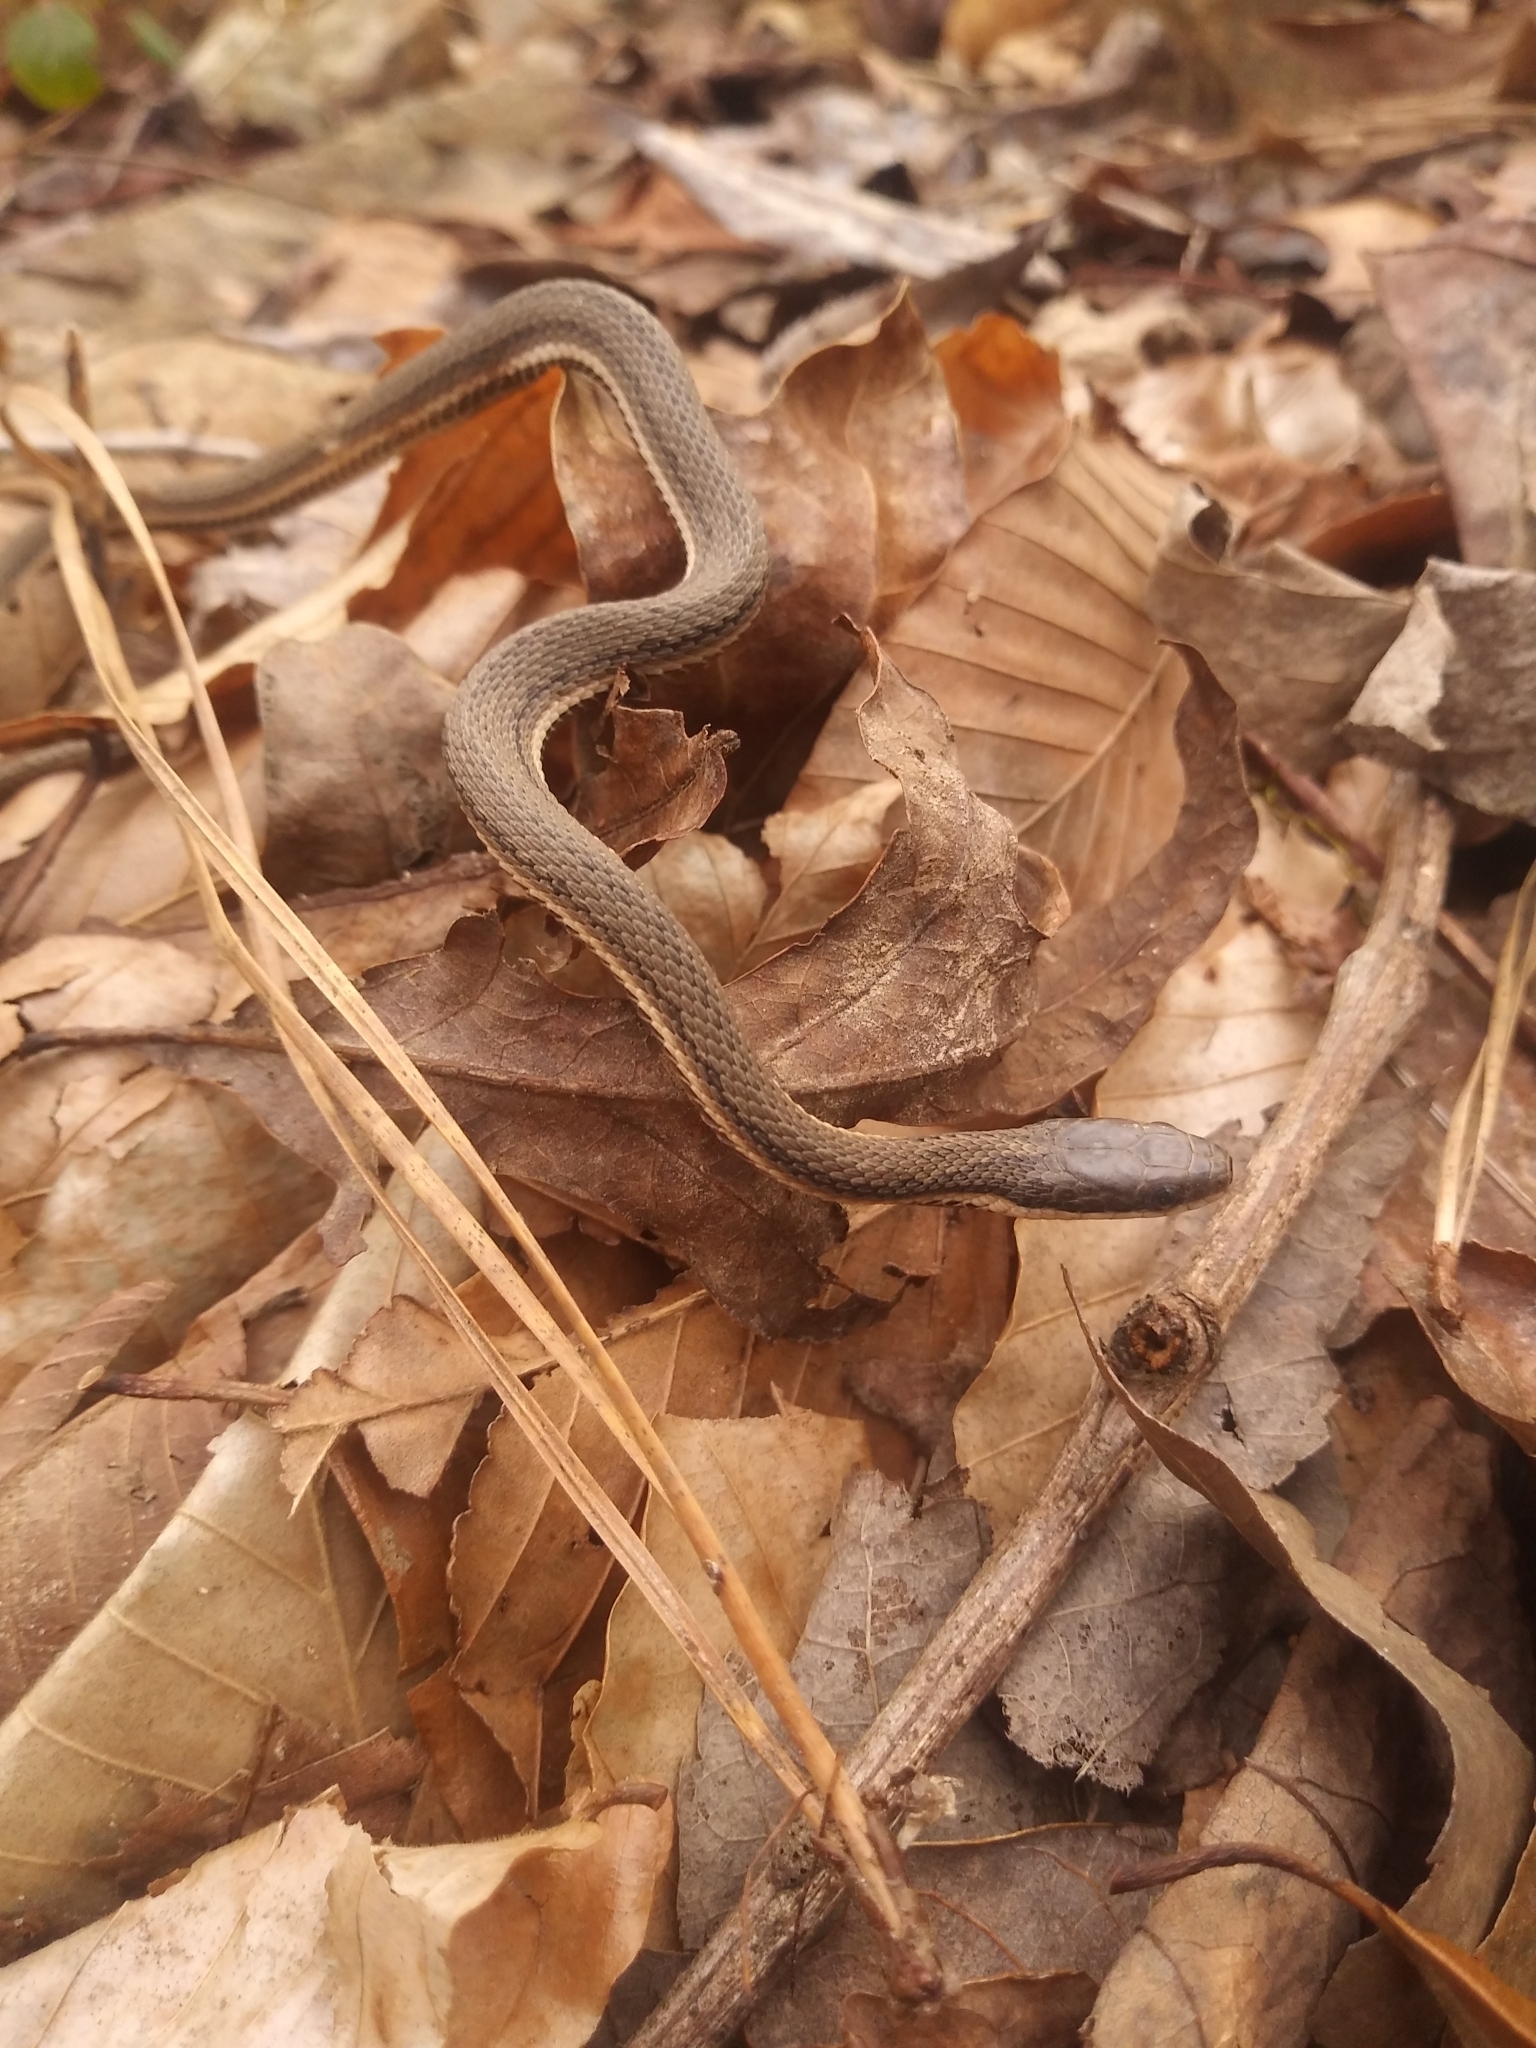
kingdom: Animalia
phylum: Chordata
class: Squamata
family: Colubridae
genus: Regina
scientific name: Regina septemvittata
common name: Queen snake
